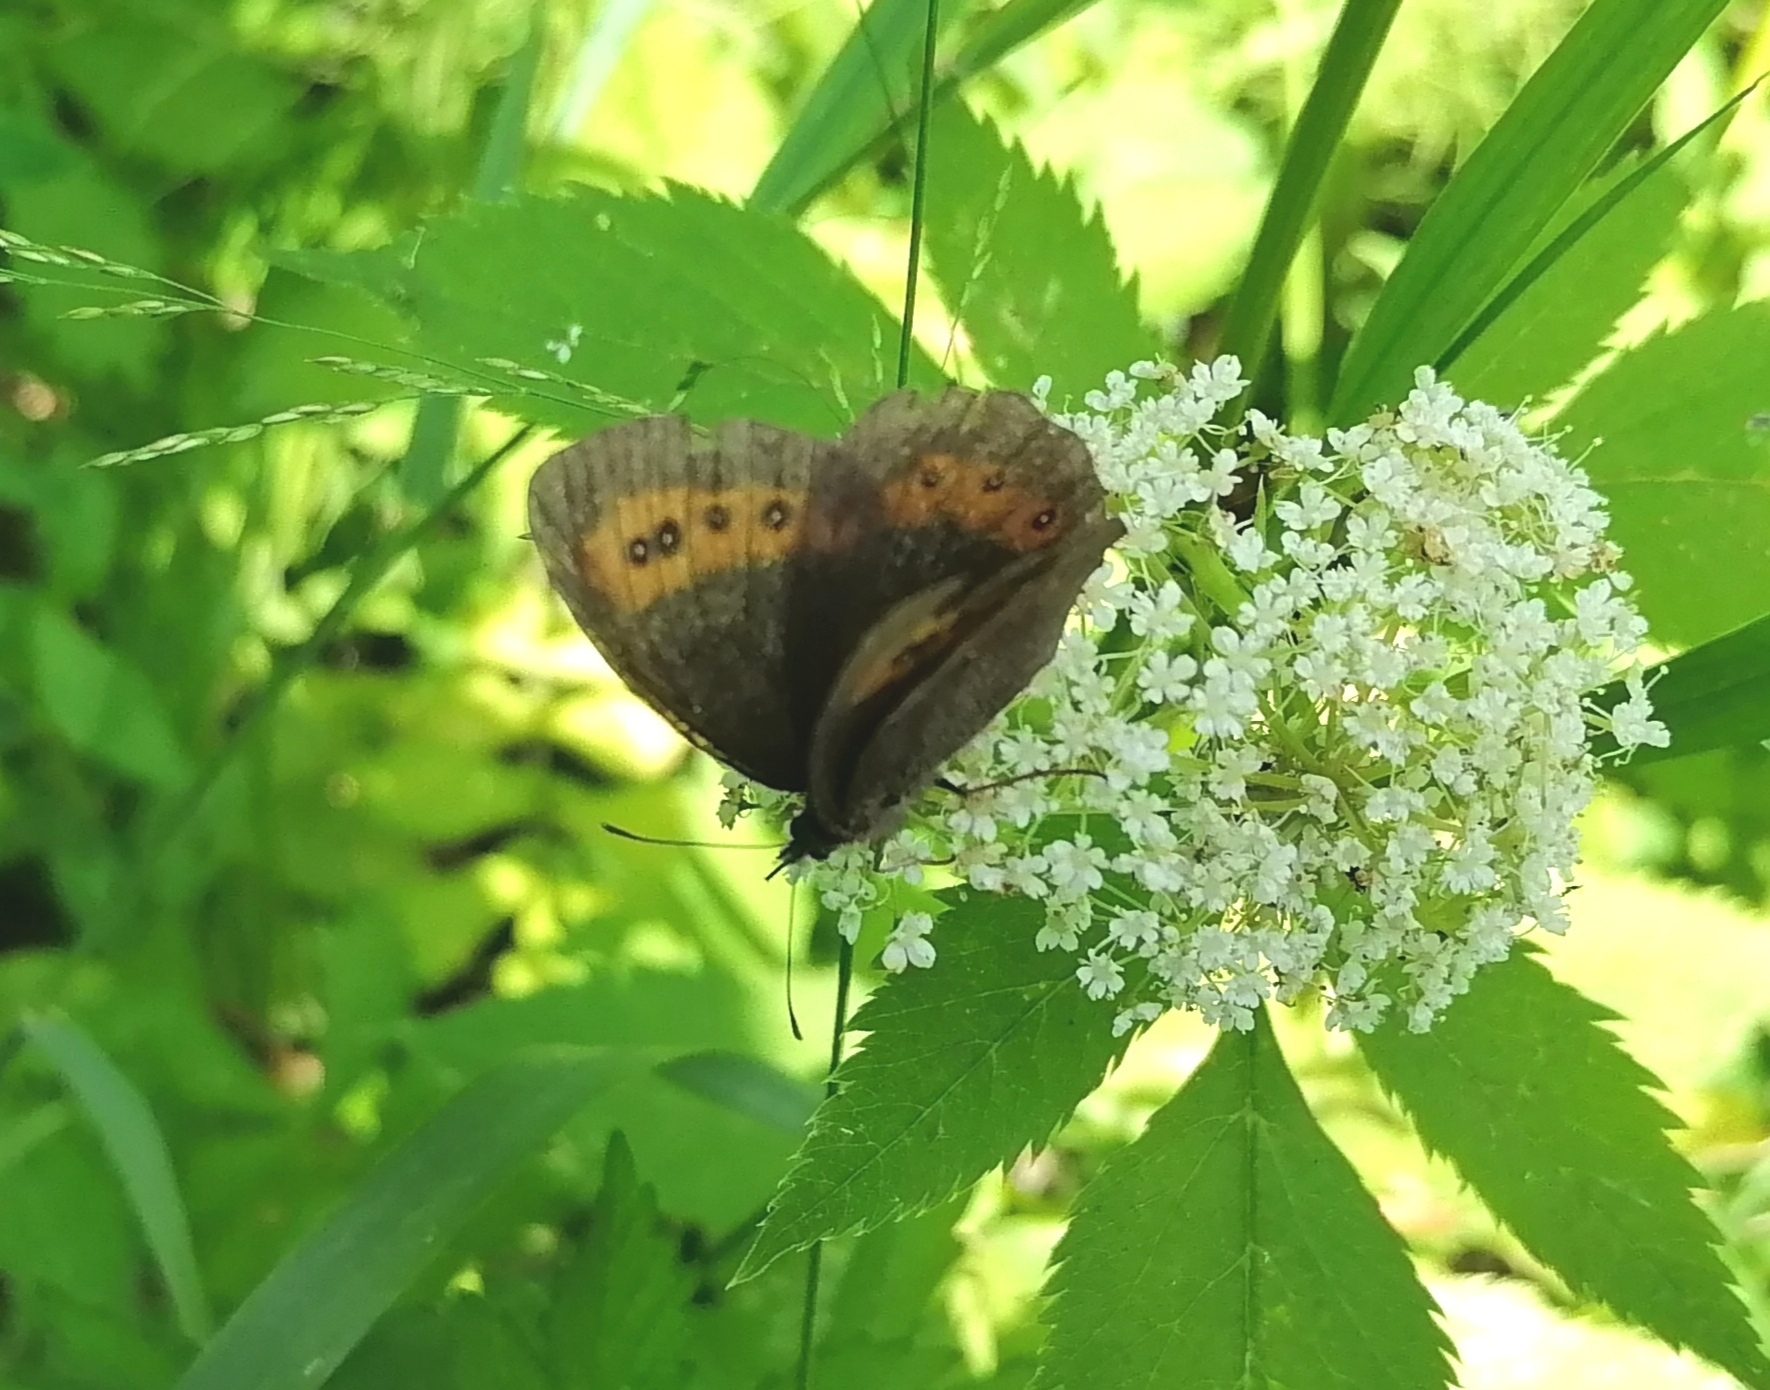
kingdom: Animalia
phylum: Arthropoda
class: Insecta
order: Lepidoptera
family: Nymphalidae
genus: Erebia
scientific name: Erebia ligea
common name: Arran brown
